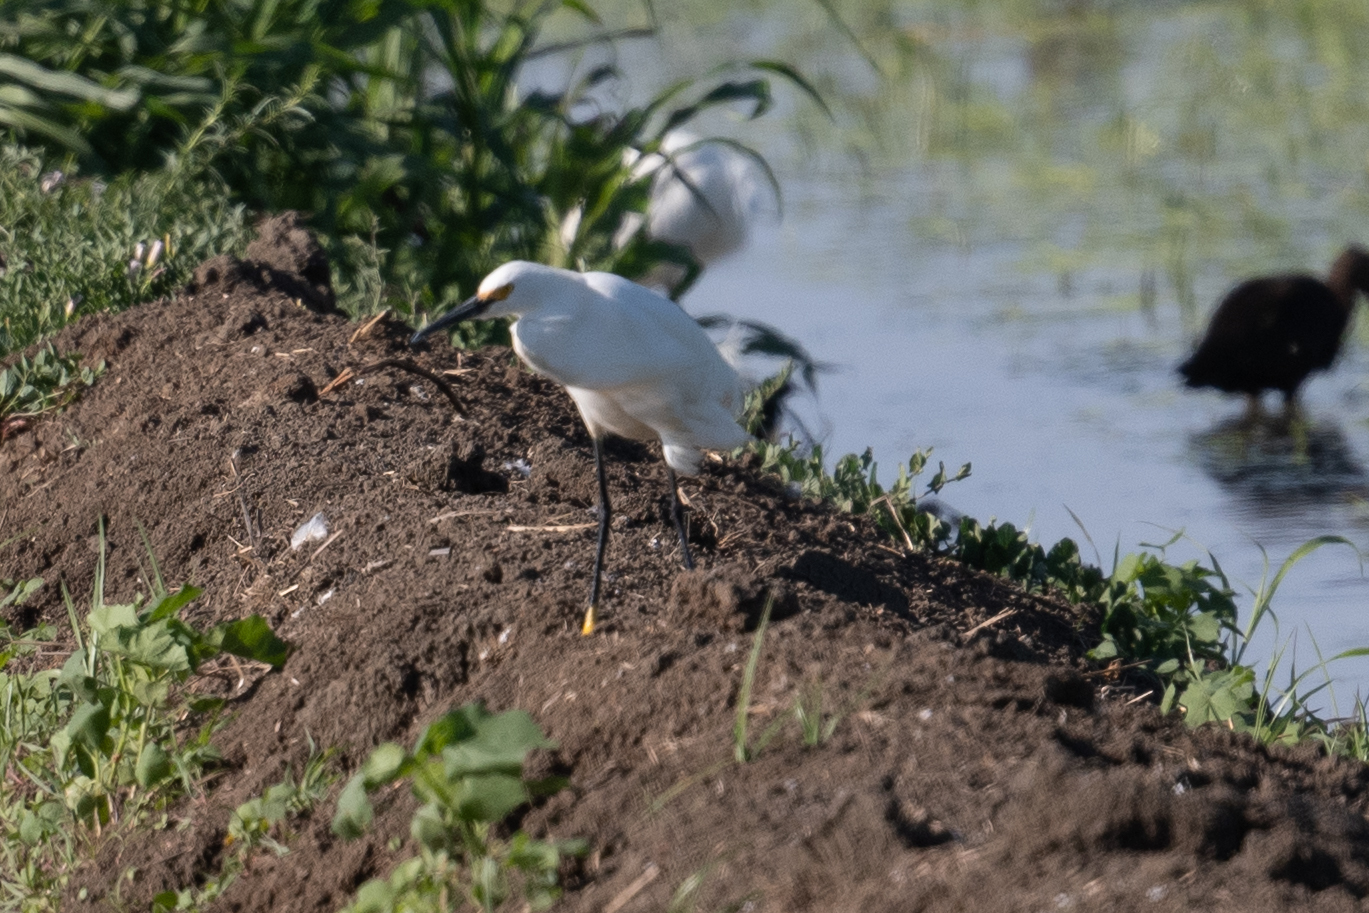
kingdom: Animalia
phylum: Chordata
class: Aves
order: Pelecaniformes
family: Ardeidae
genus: Egretta
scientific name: Egretta thula
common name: Snowy egret
